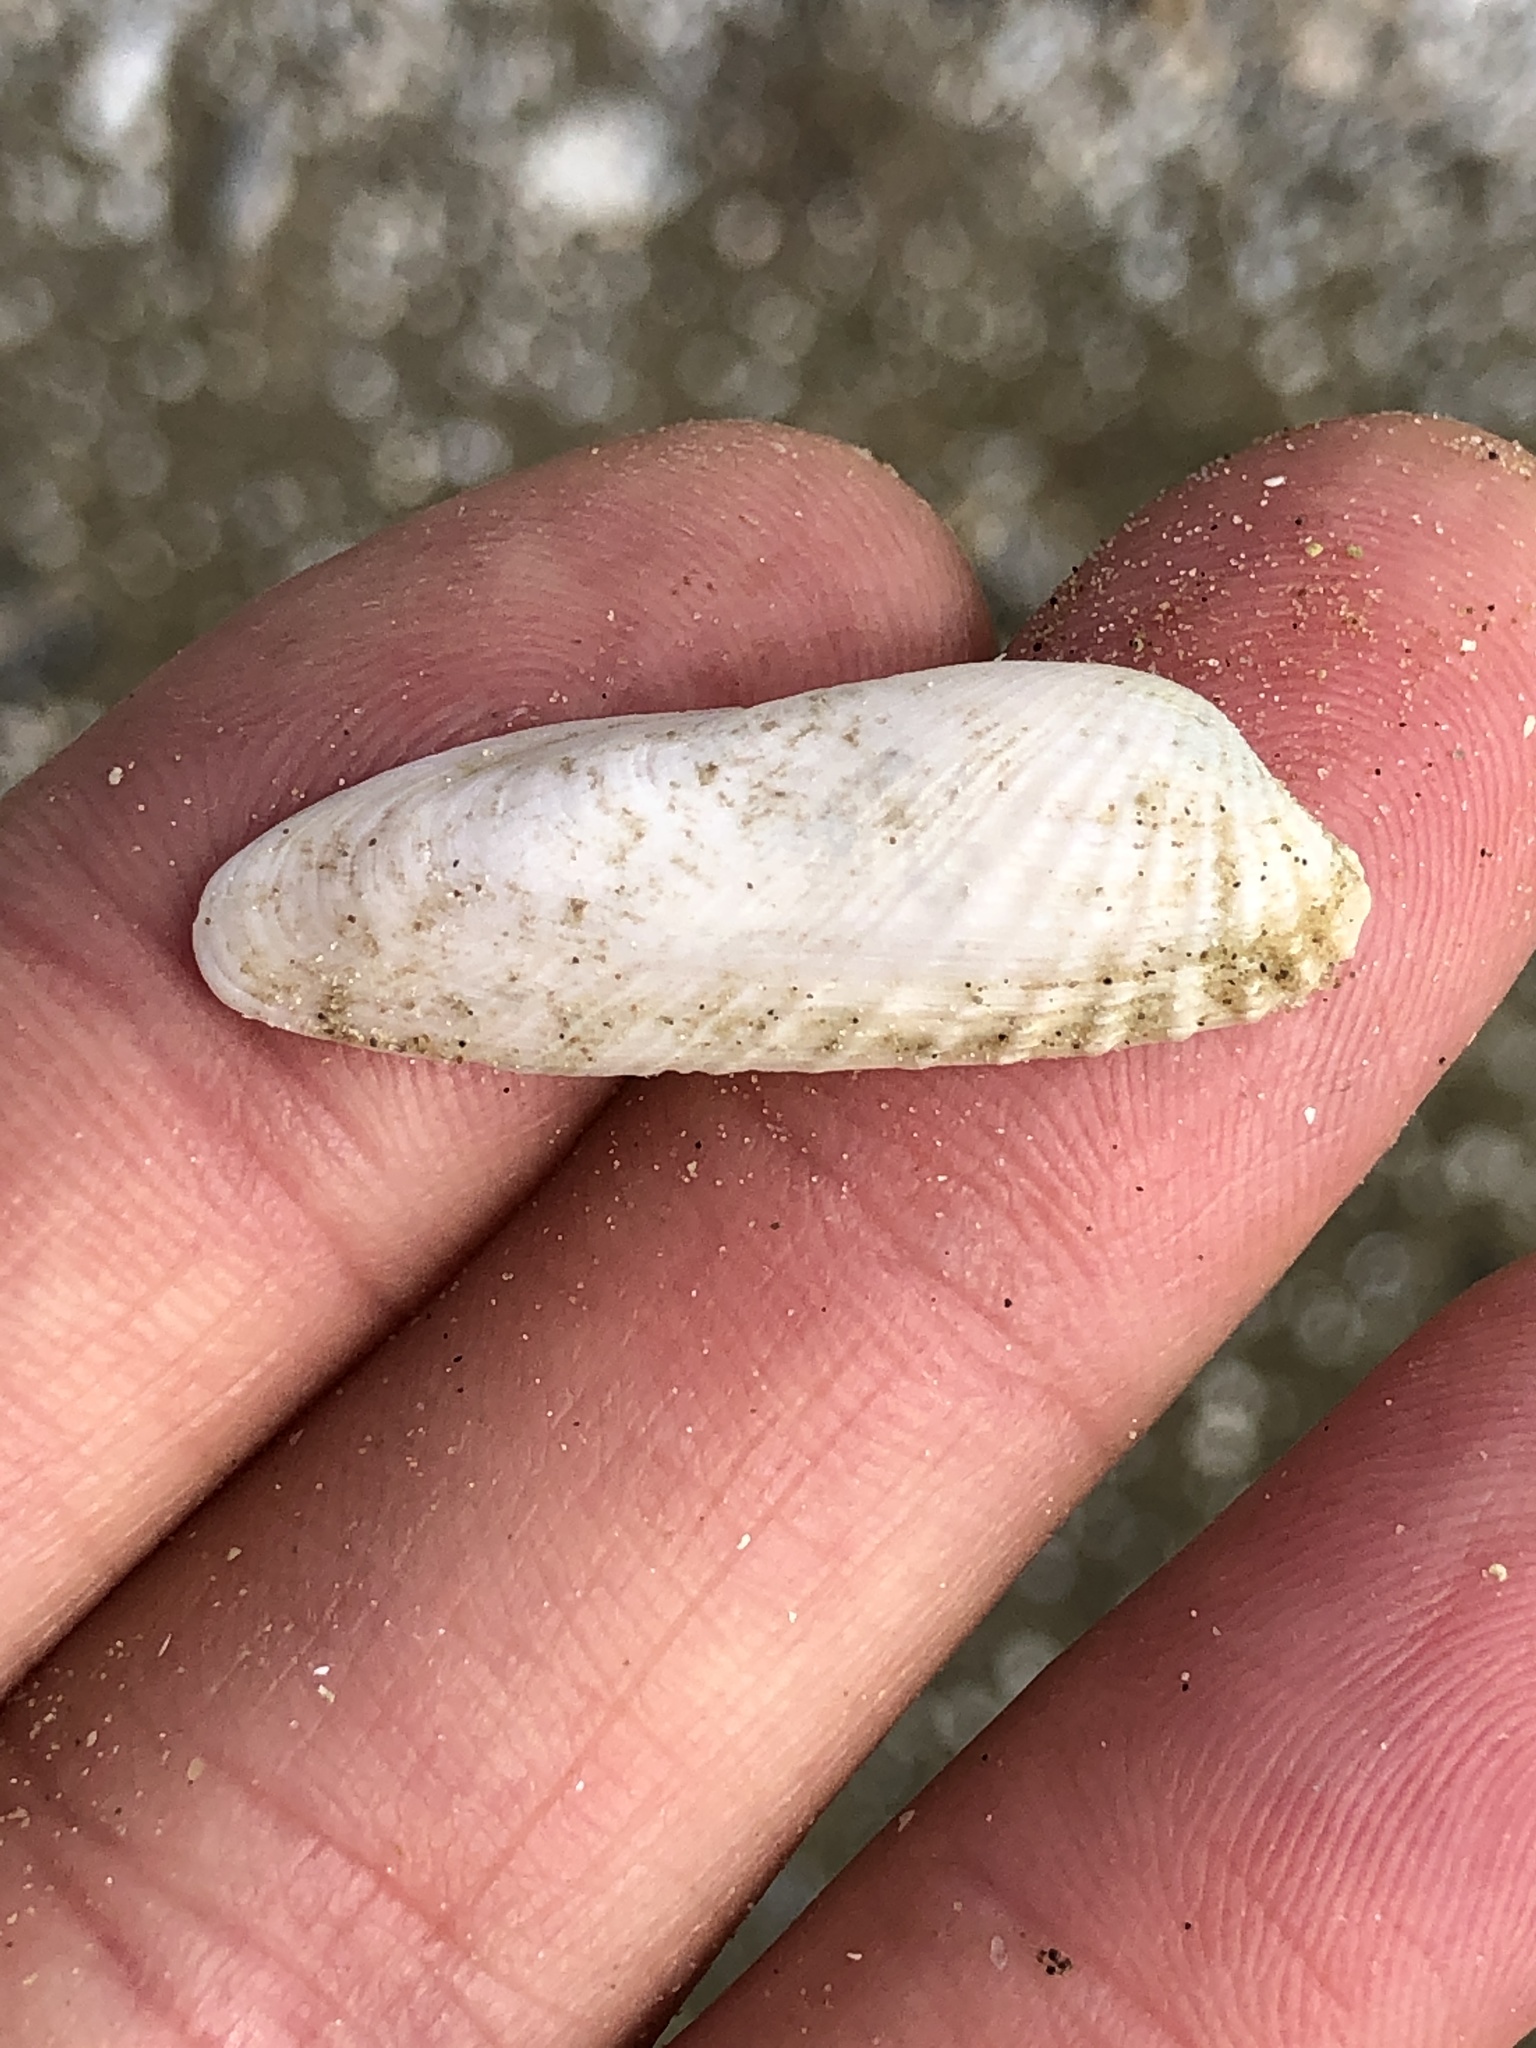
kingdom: Animalia
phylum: Mollusca
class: Bivalvia
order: Venerida
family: Veneridae
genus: Petricolaria
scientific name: Petricolaria pholadiformis
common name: American piddock
